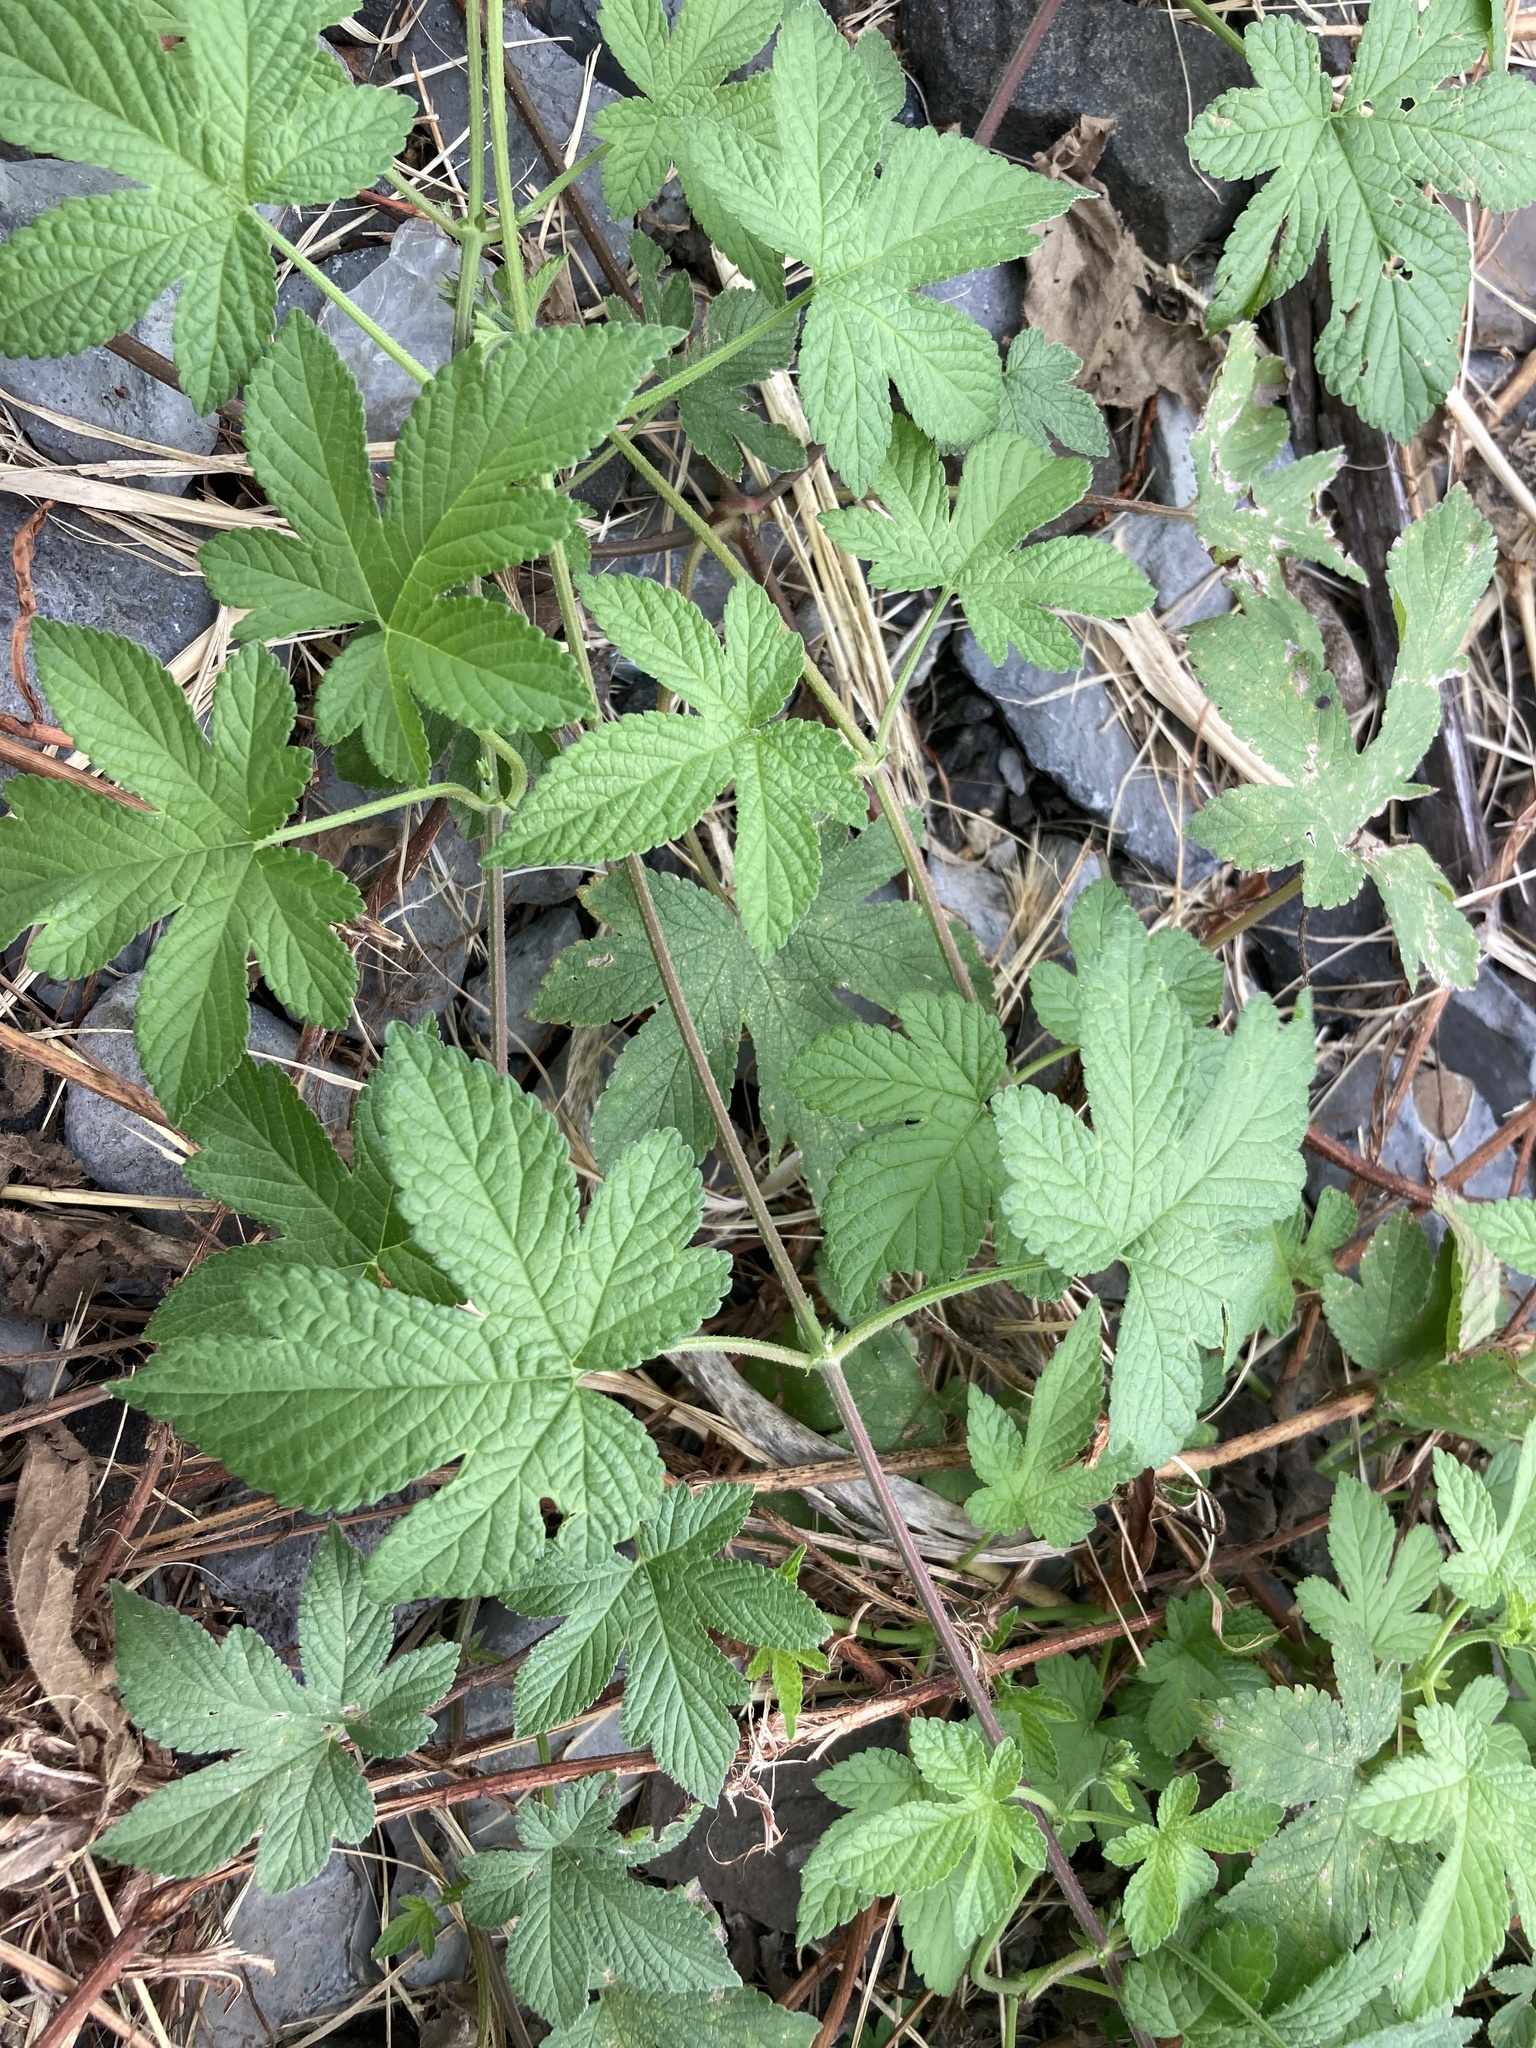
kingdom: Plantae
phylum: Tracheophyta
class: Magnoliopsida
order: Rosales
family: Cannabaceae
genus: Humulus
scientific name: Humulus scandens
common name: Japanese hop
